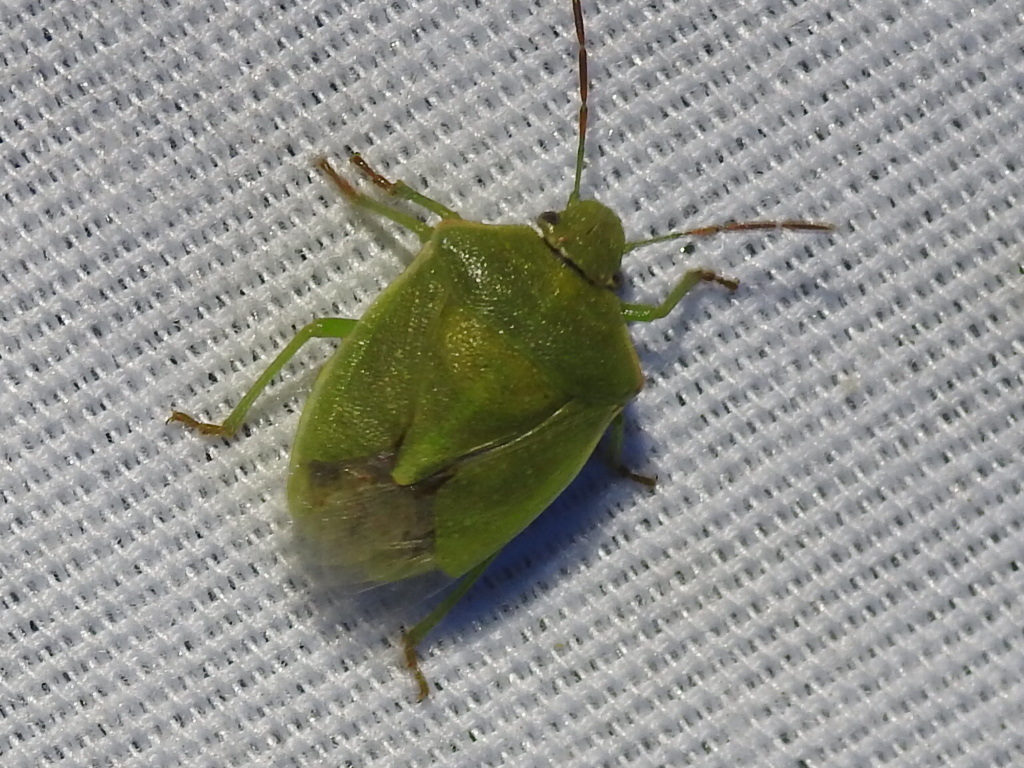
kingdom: Animalia
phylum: Arthropoda
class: Insecta
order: Hemiptera
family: Pentatomidae
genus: Thyanta
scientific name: Thyanta accerra
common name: Stink bug
